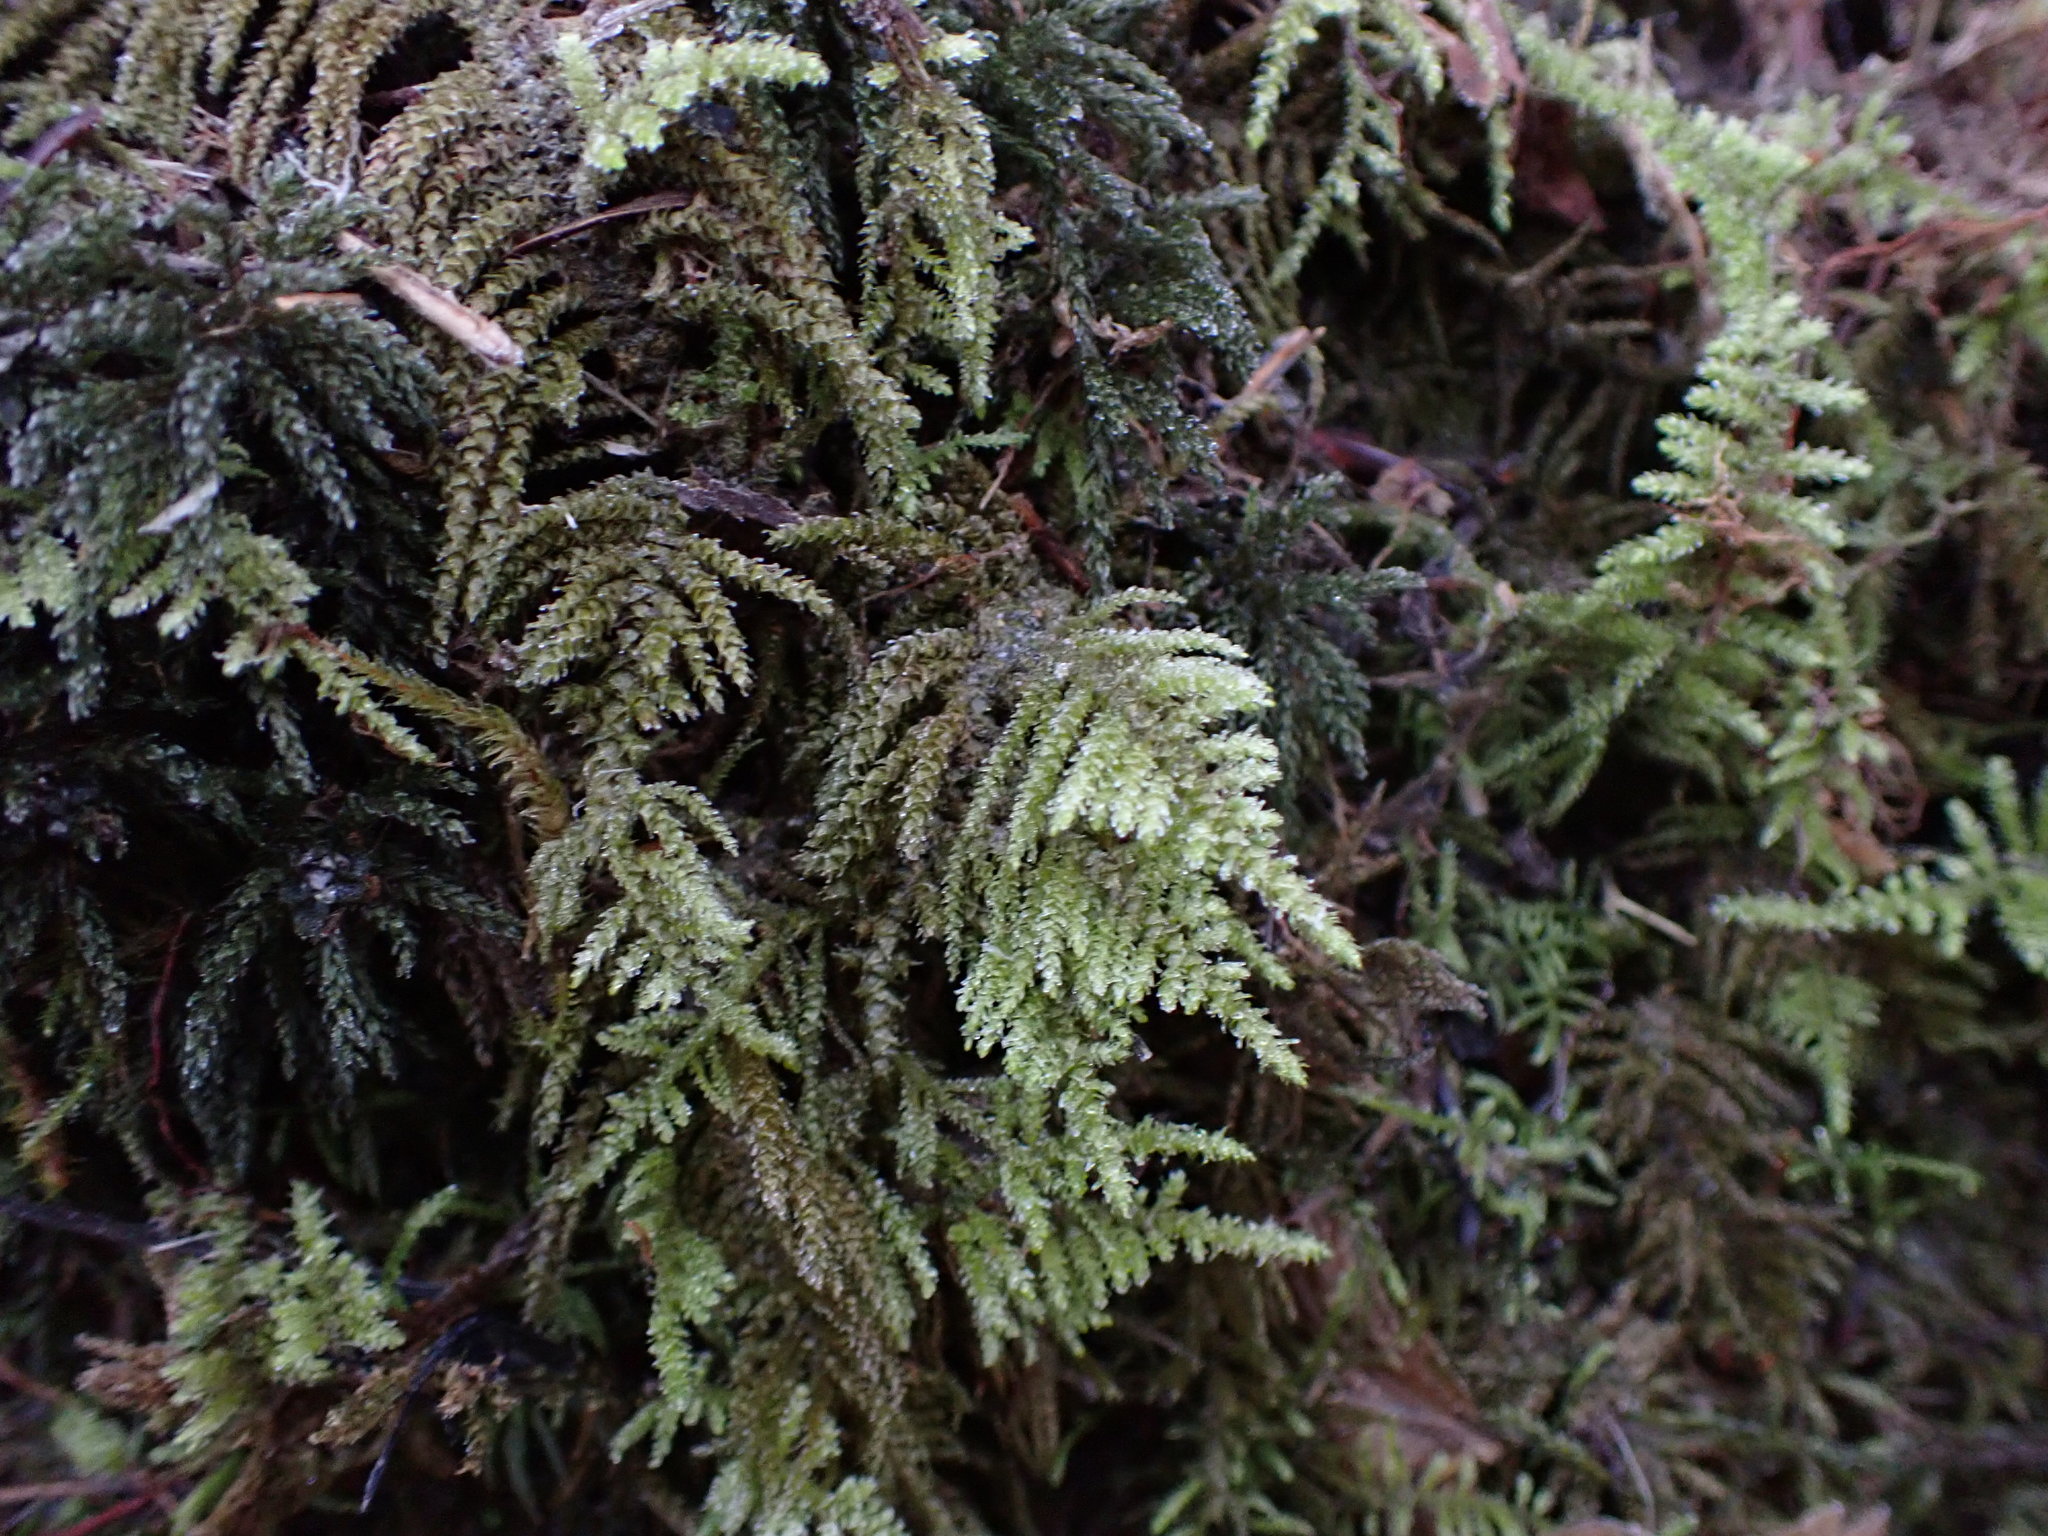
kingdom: Plantae
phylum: Bryophyta
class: Bryopsida
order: Hypnales
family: Brachytheciaceae
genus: Kindbergia
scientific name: Kindbergia oregana
